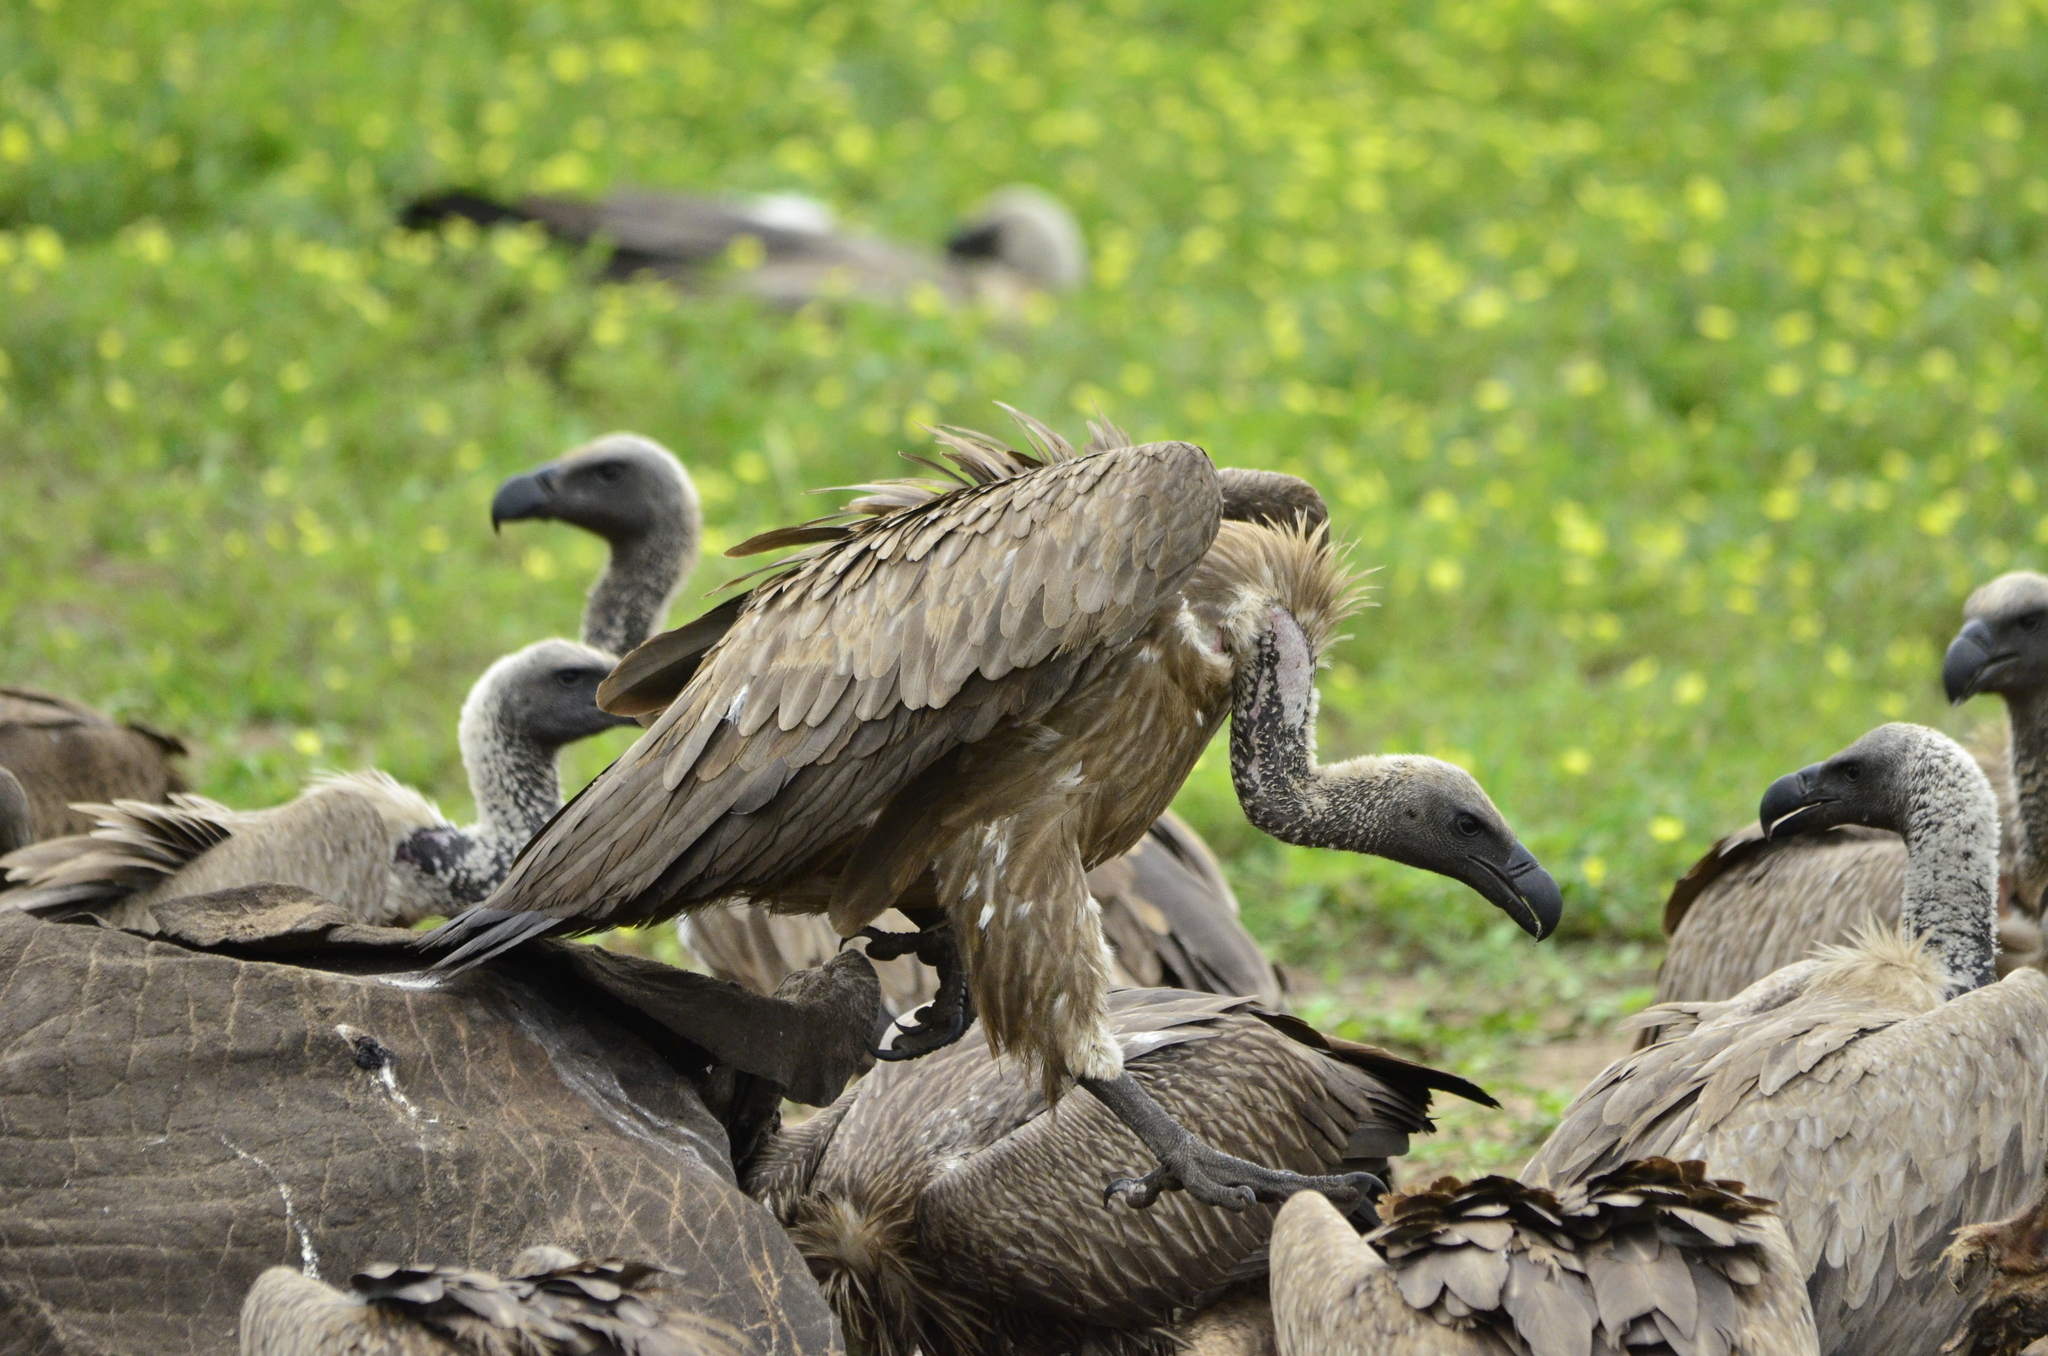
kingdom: Animalia
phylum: Chordata
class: Aves
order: Accipitriformes
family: Accipitridae
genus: Gyps
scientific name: Gyps africanus
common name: White-backed vulture
